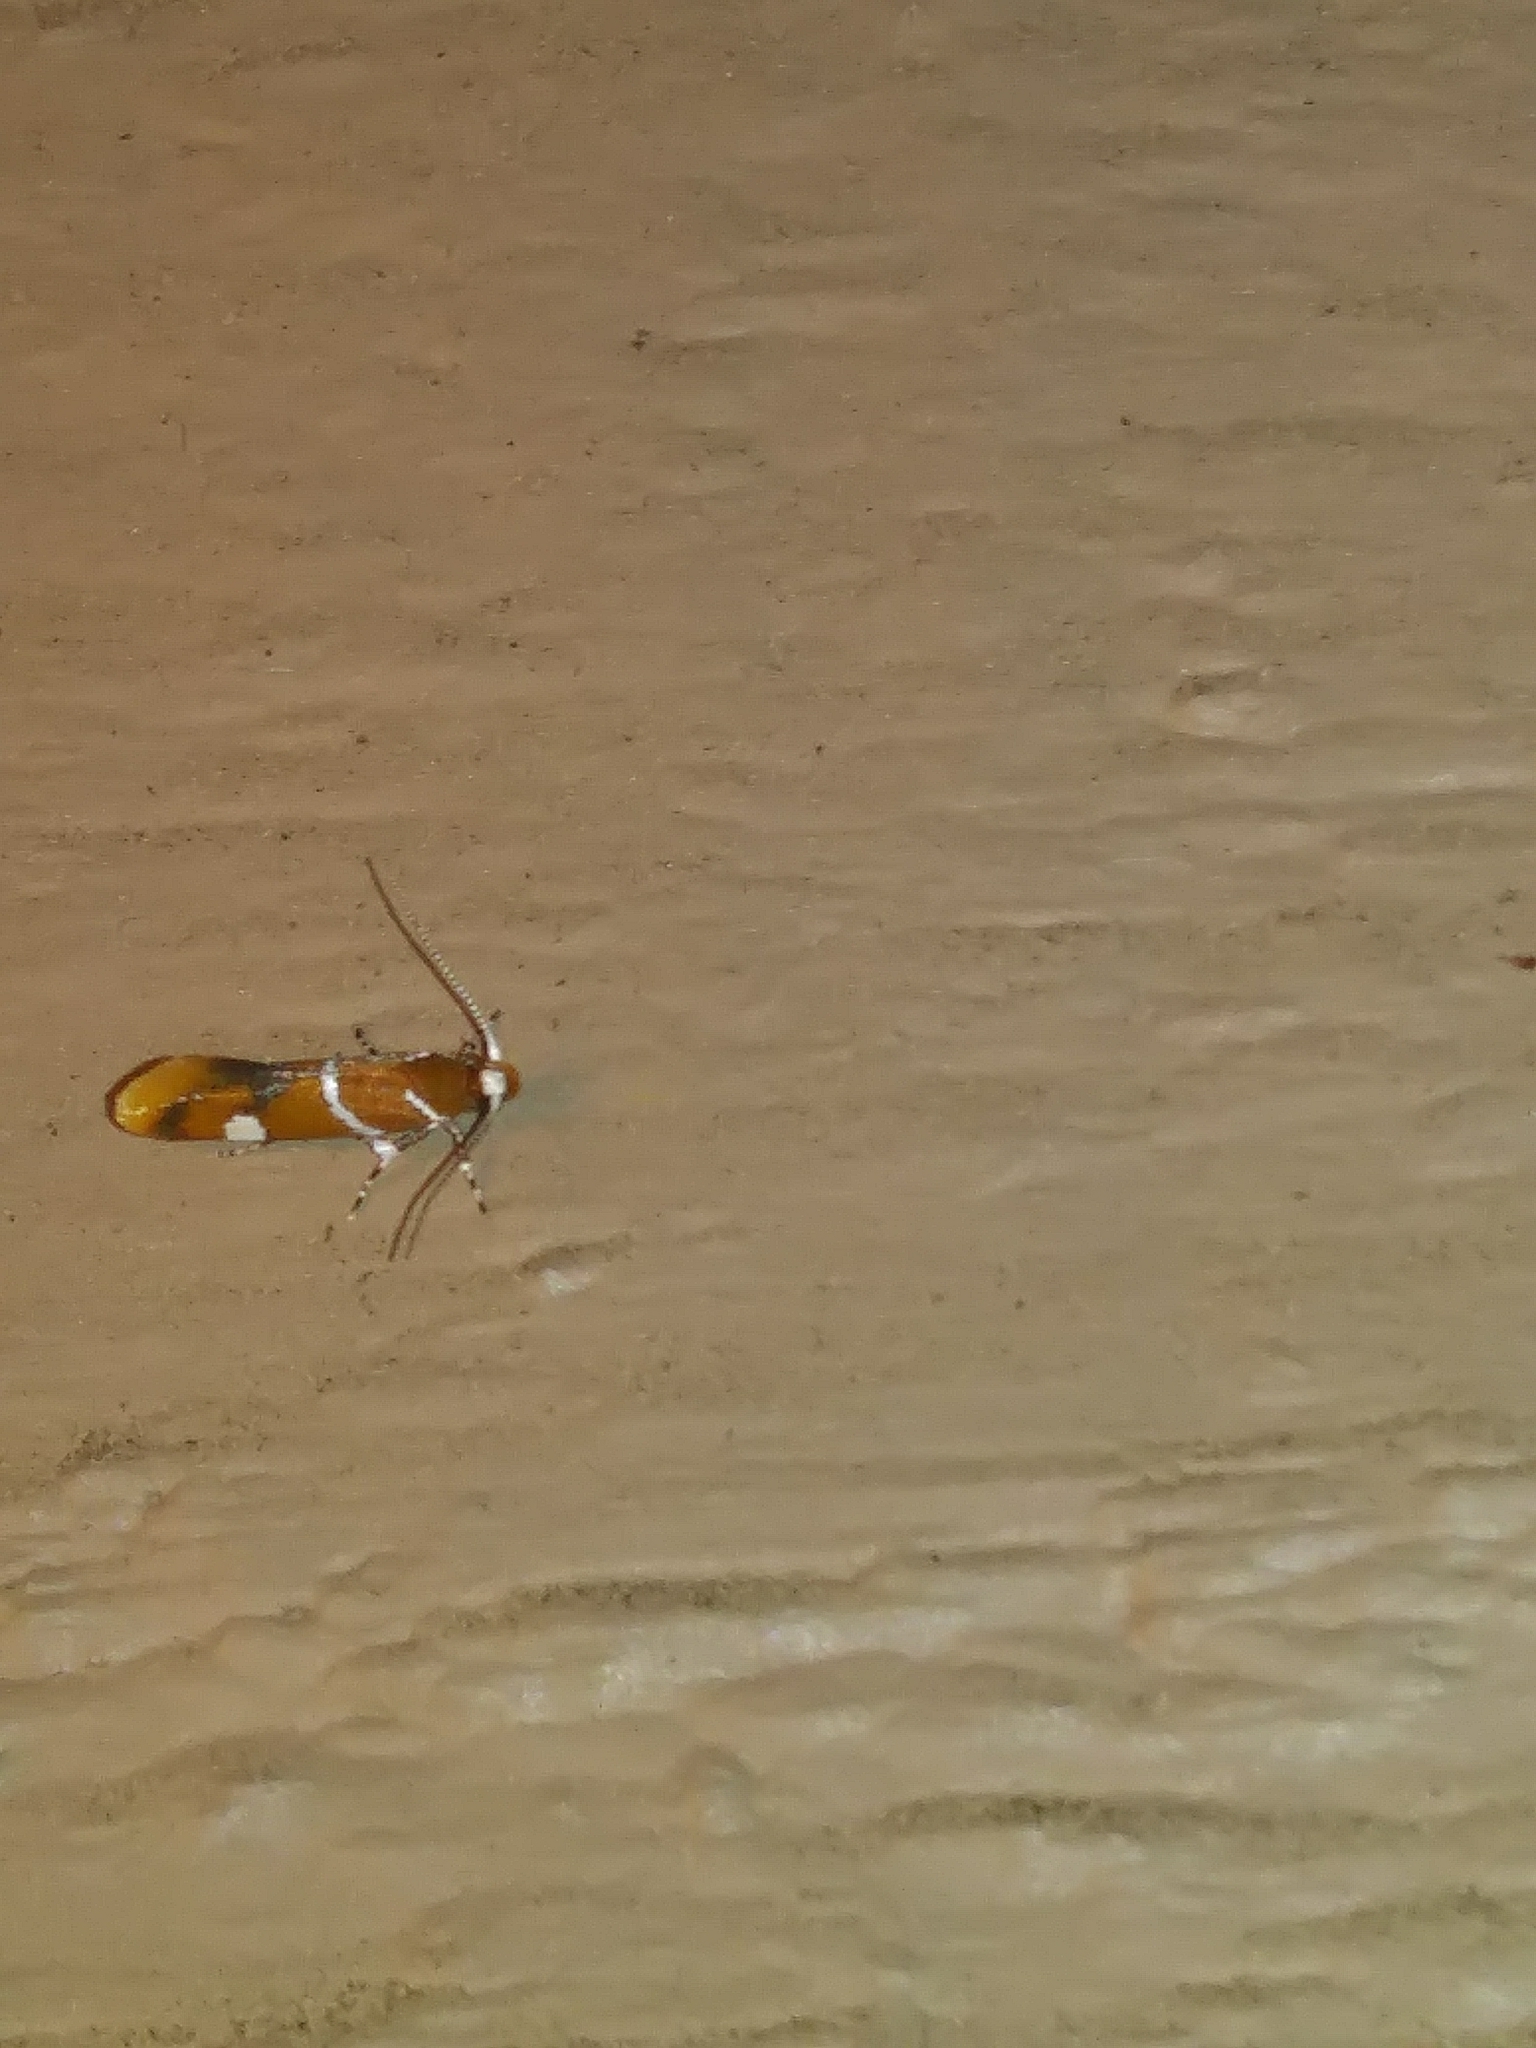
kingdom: Animalia
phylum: Arthropoda
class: Insecta
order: Lepidoptera
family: Oecophoridae
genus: Promalactis
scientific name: Promalactis suzukiella
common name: Moth
